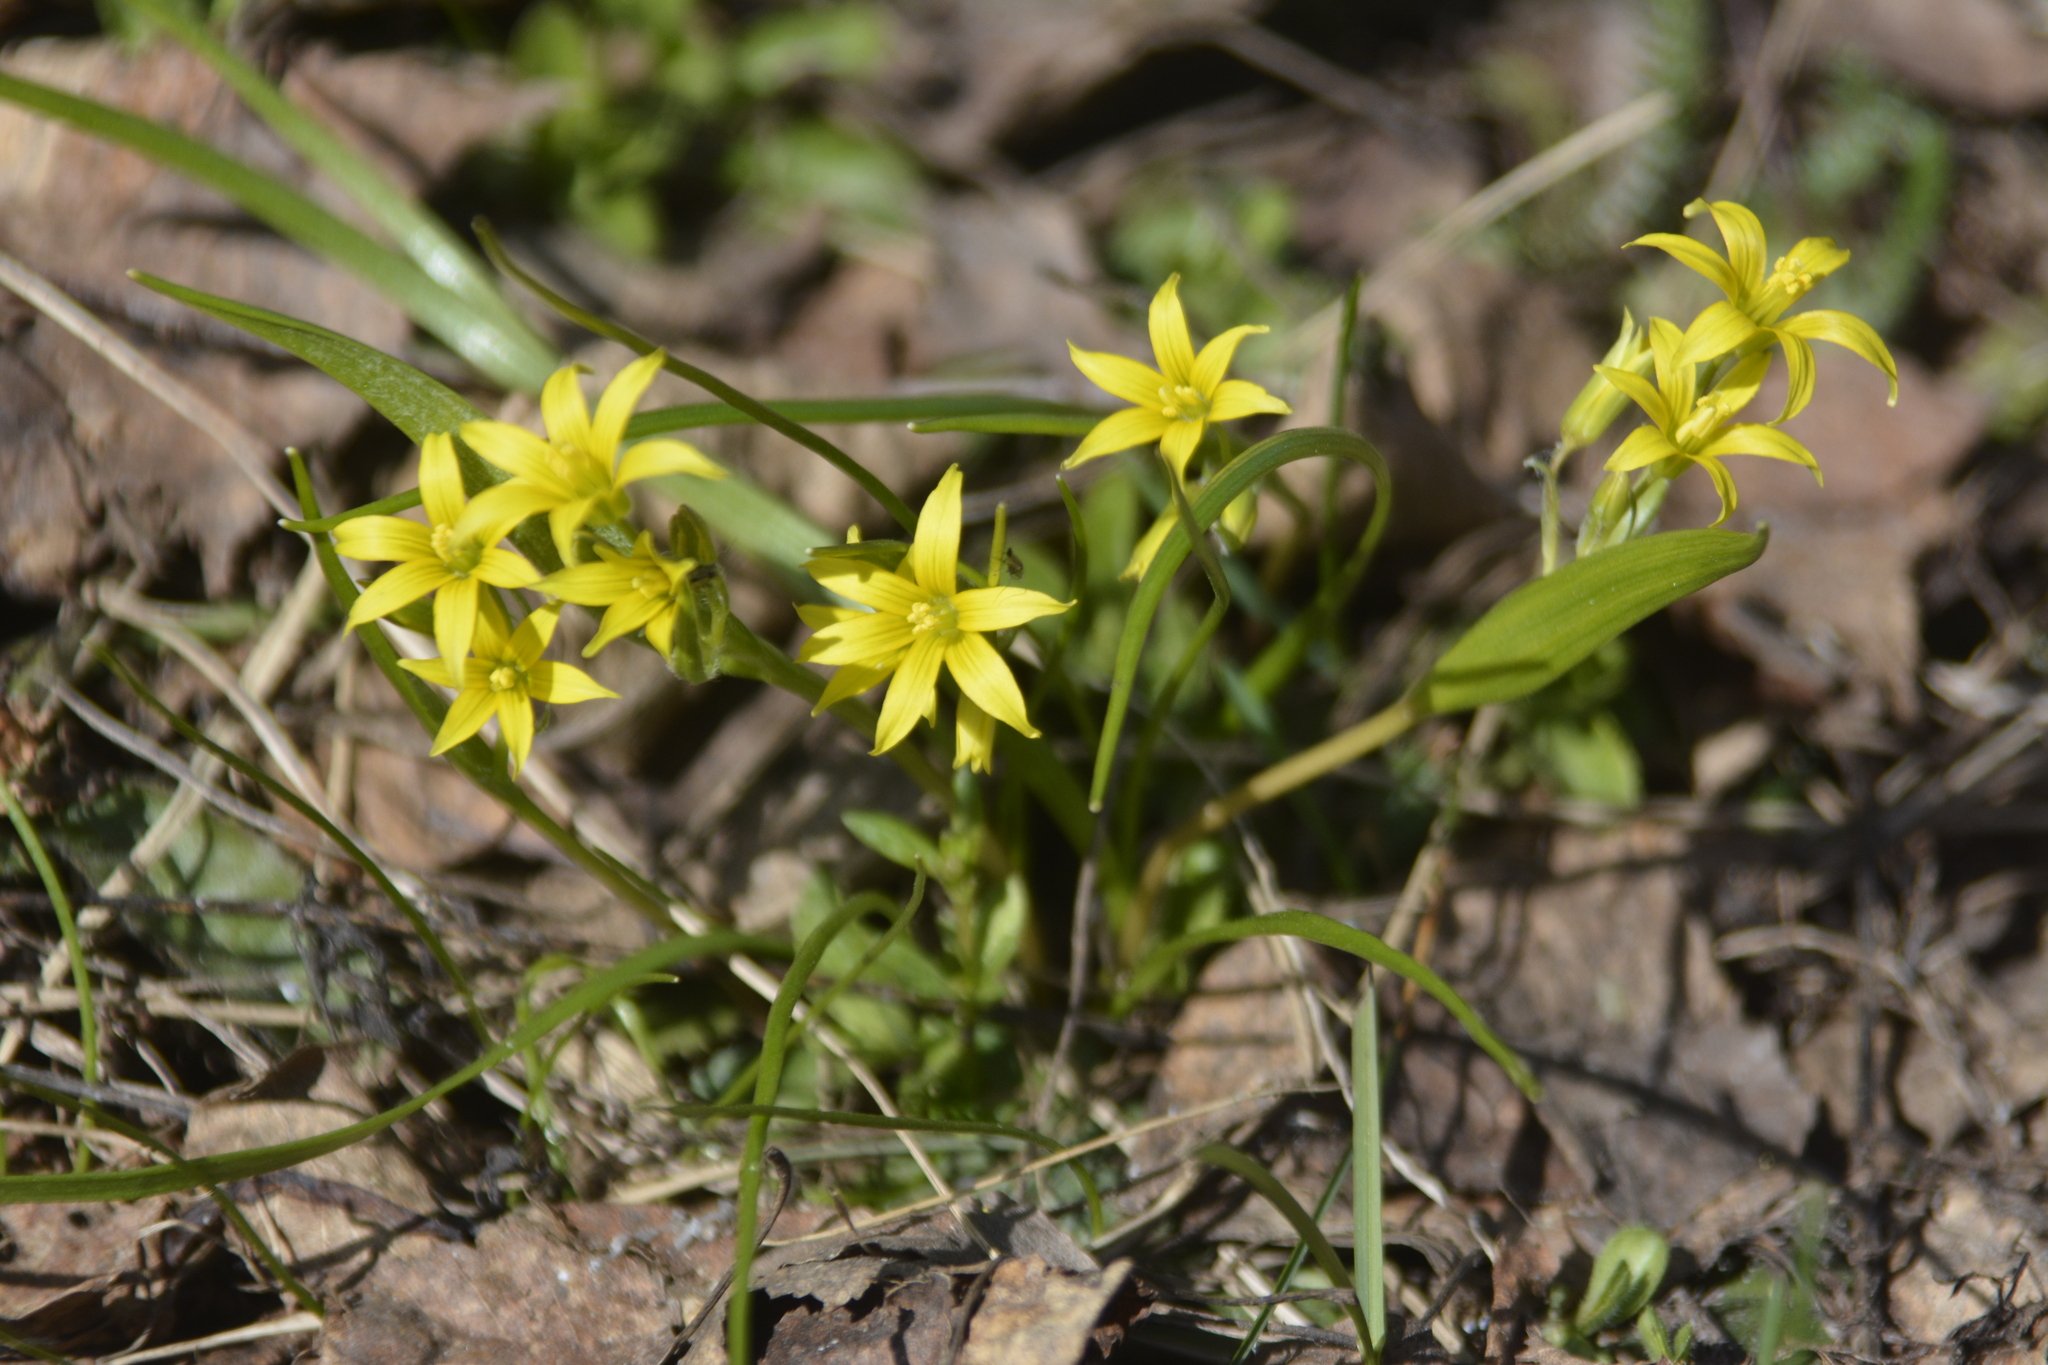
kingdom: Plantae
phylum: Tracheophyta
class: Liliopsida
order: Liliales
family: Liliaceae
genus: Gagea
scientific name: Gagea minima
